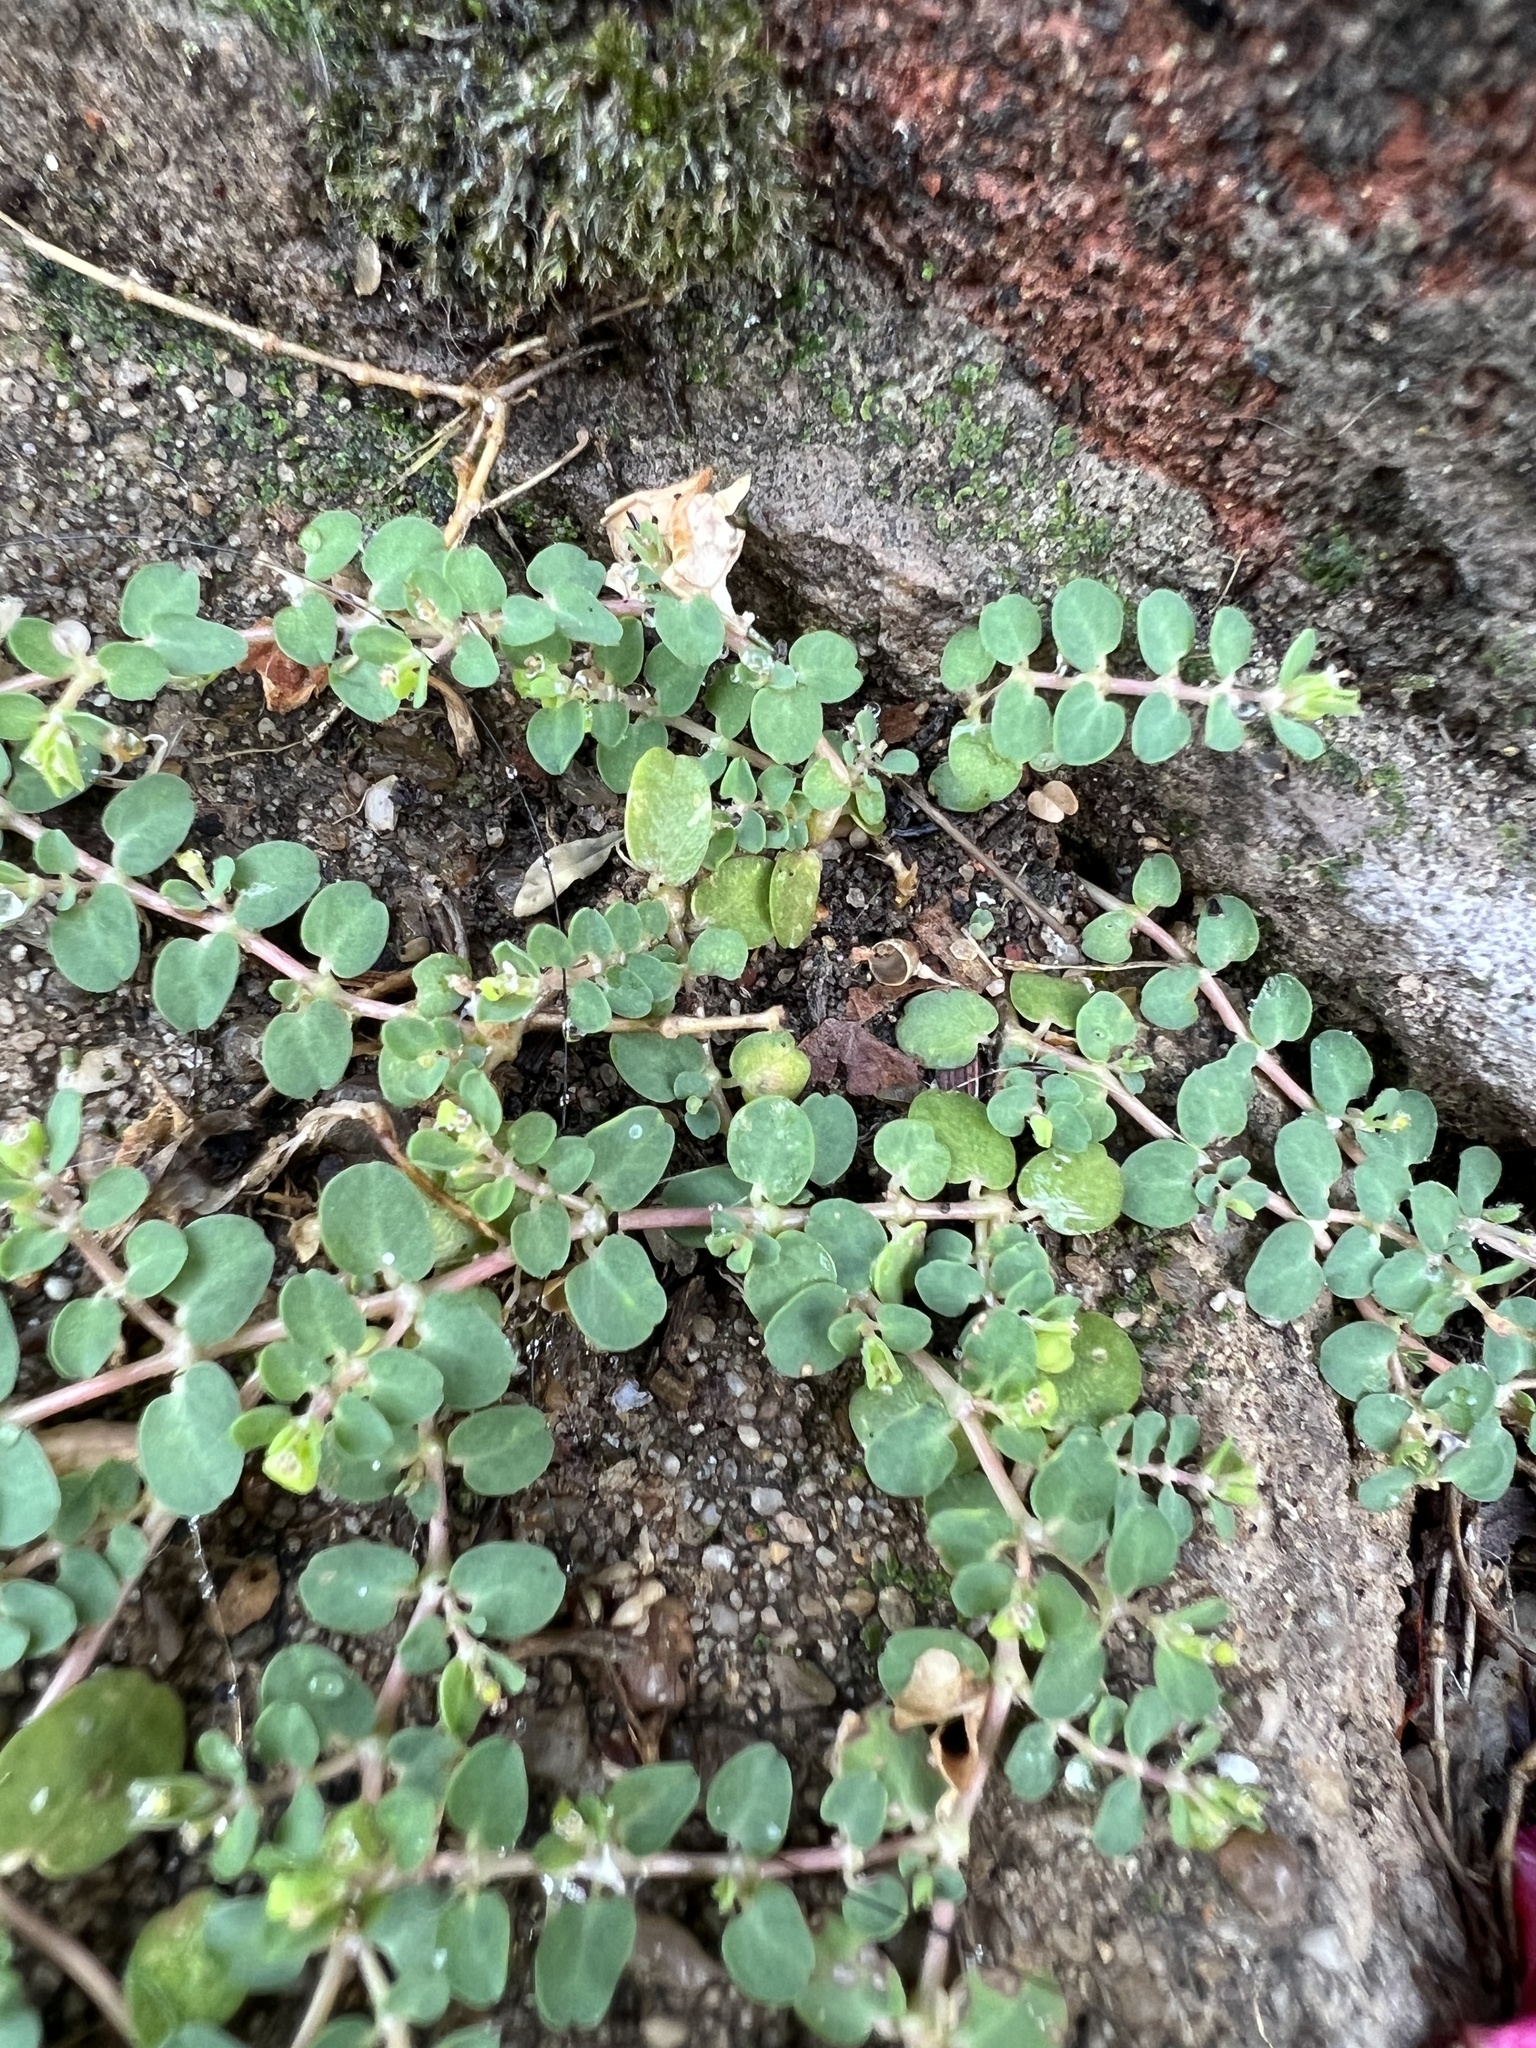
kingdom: Plantae
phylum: Tracheophyta
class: Magnoliopsida
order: Malpighiales
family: Euphorbiaceae
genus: Euphorbia
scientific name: Euphorbia serpens
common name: Matted sandmat
